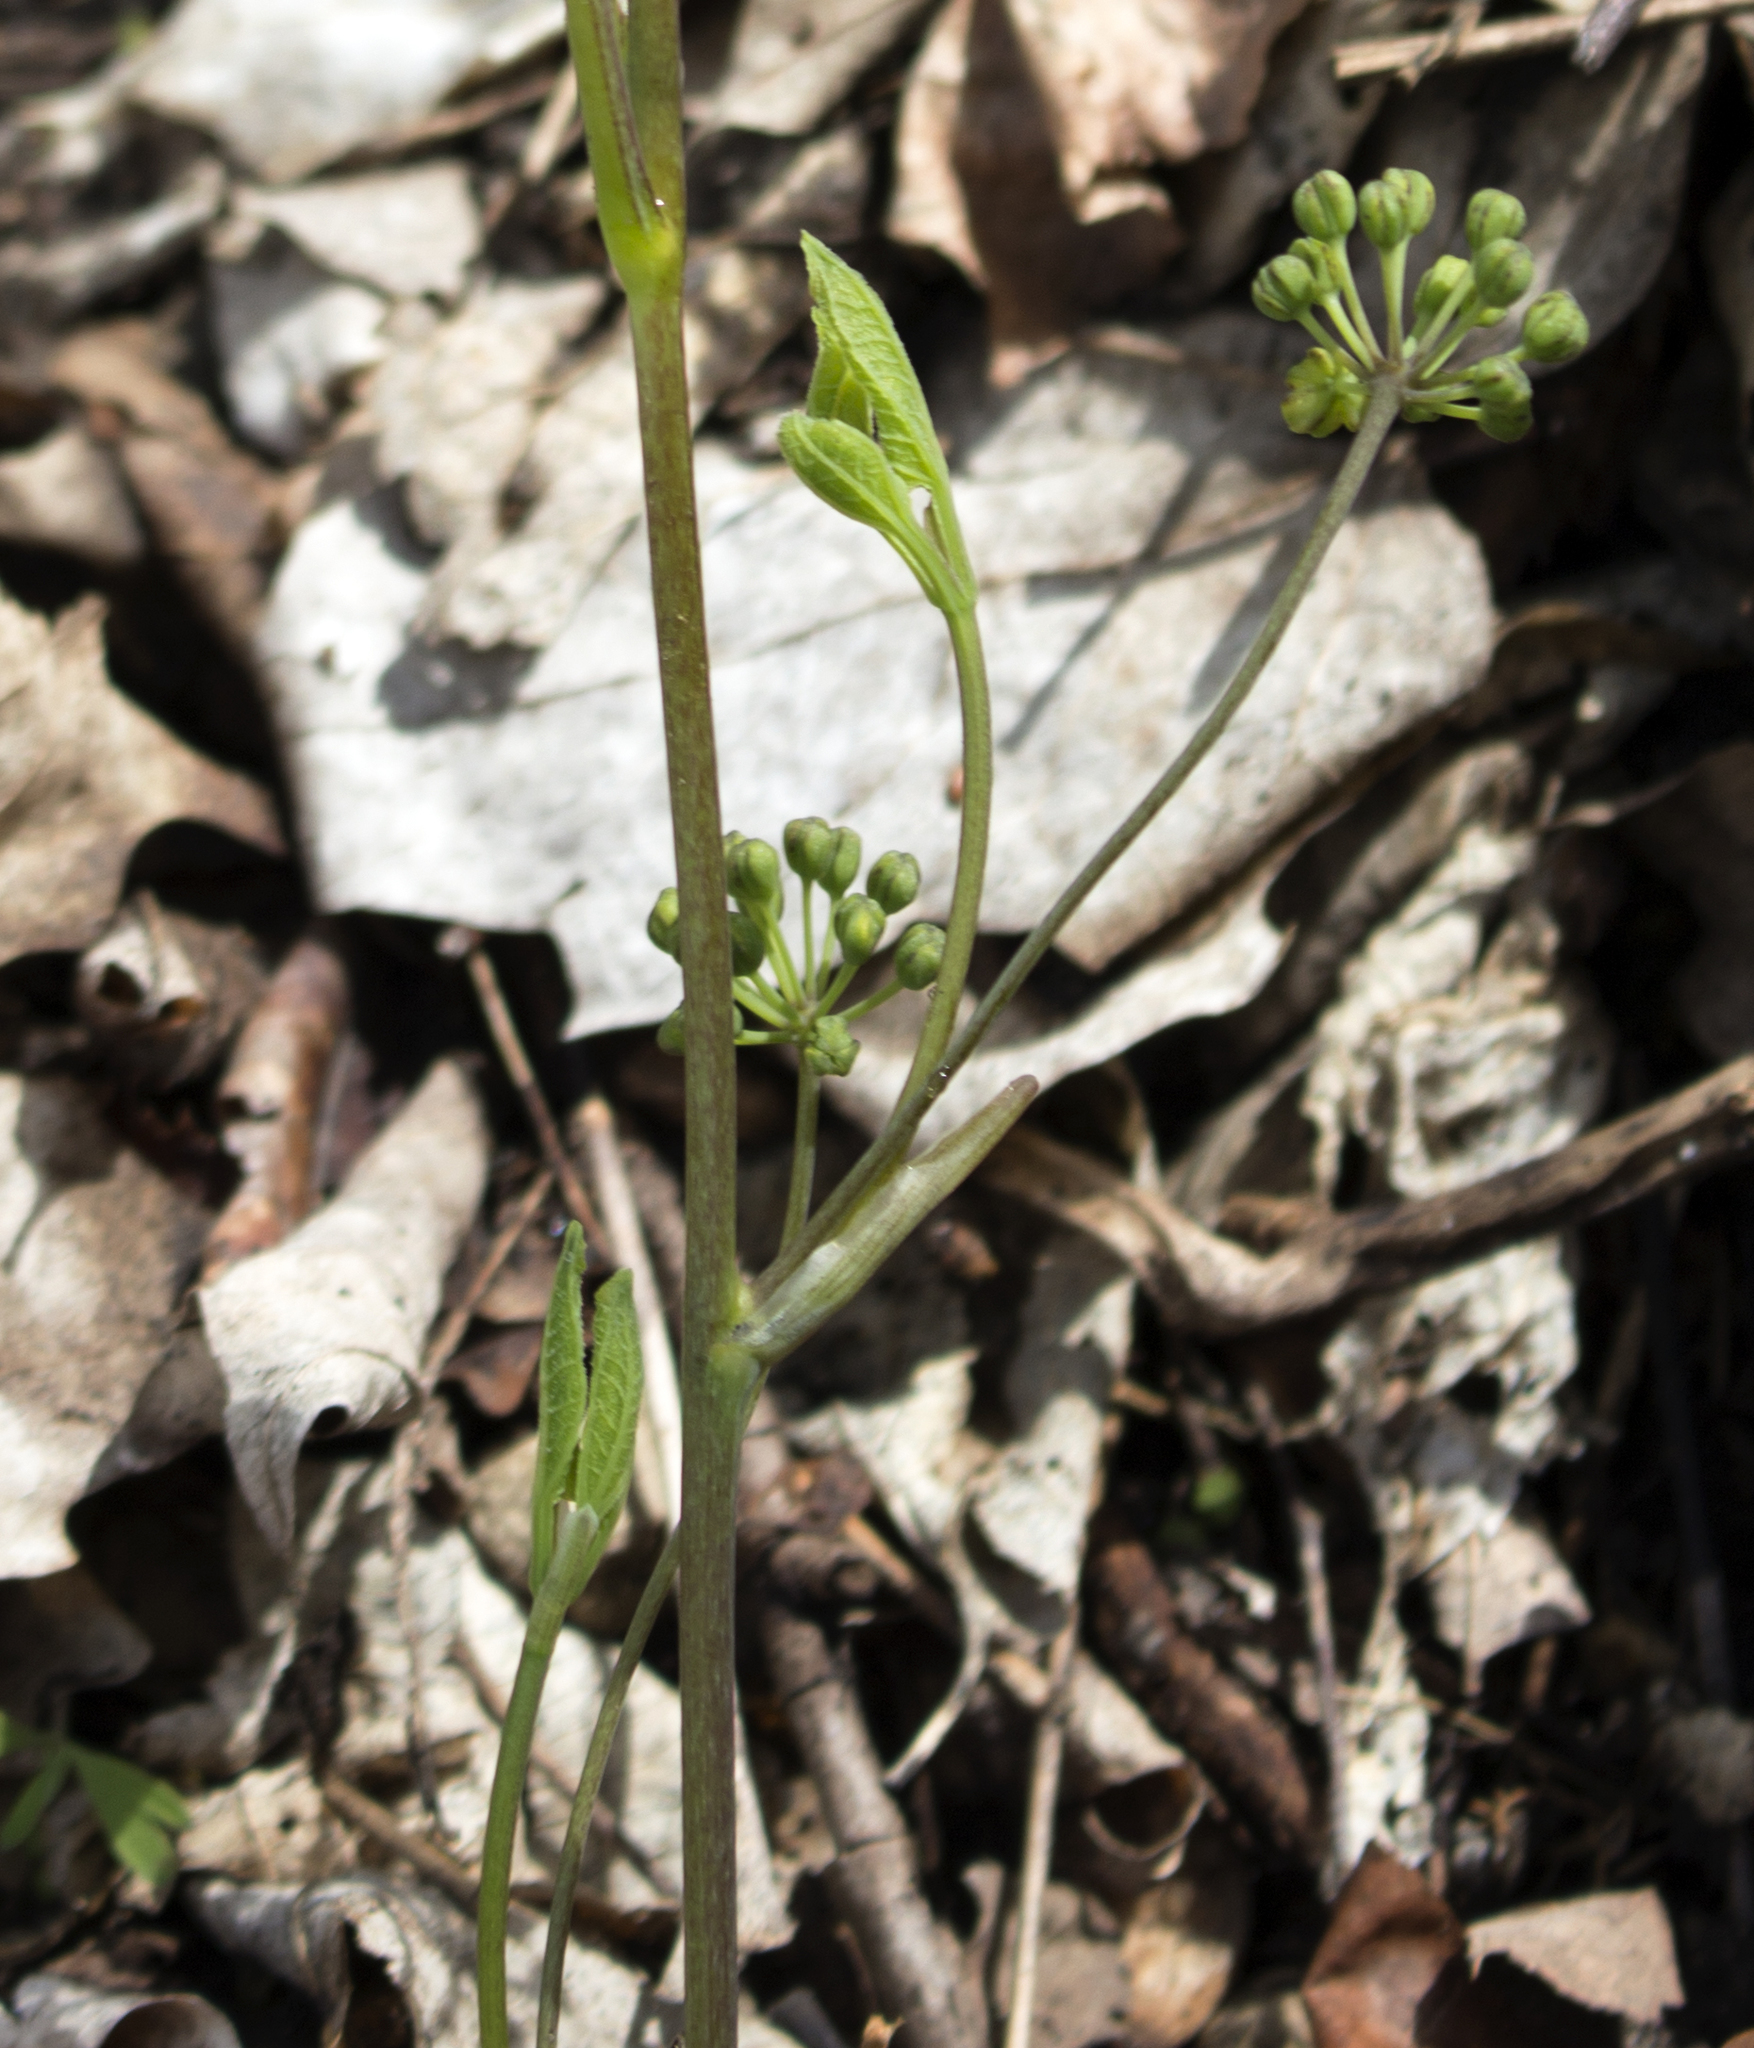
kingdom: Plantae
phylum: Tracheophyta
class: Magnoliopsida
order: Apiales
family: Araliaceae
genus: Aralia
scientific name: Aralia nudicaulis
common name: Wild sarsaparilla
